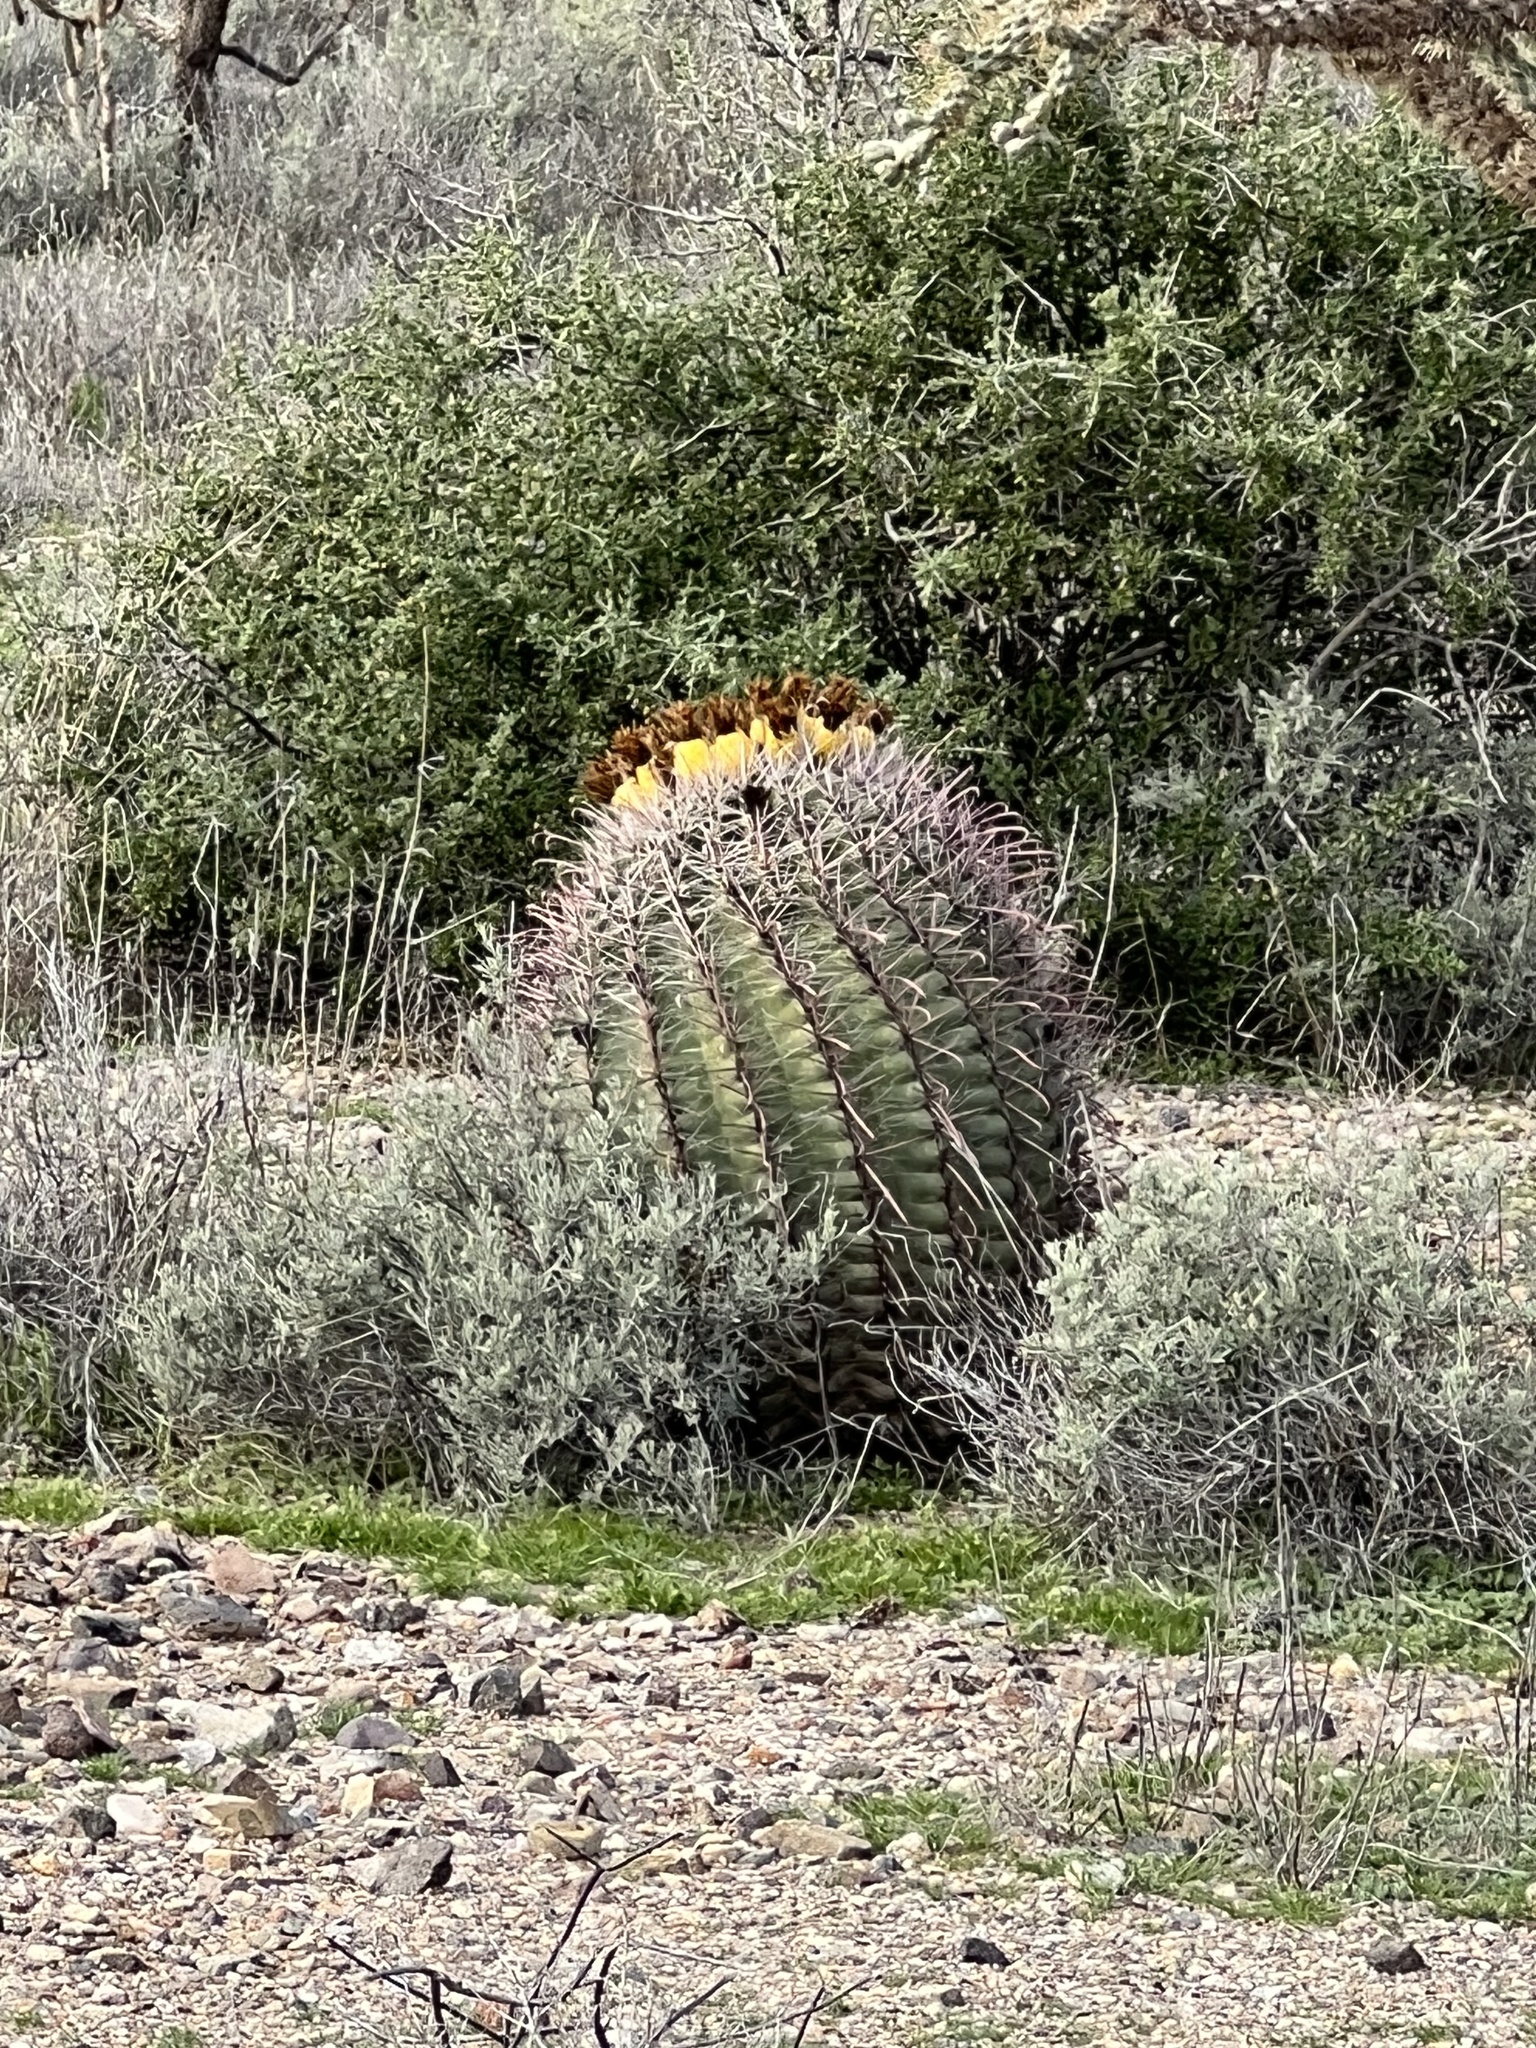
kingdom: Plantae
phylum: Tracheophyta
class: Magnoliopsida
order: Caryophyllales
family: Cactaceae
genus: Ferocactus
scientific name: Ferocactus wislizeni
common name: Candy barrel cactus
